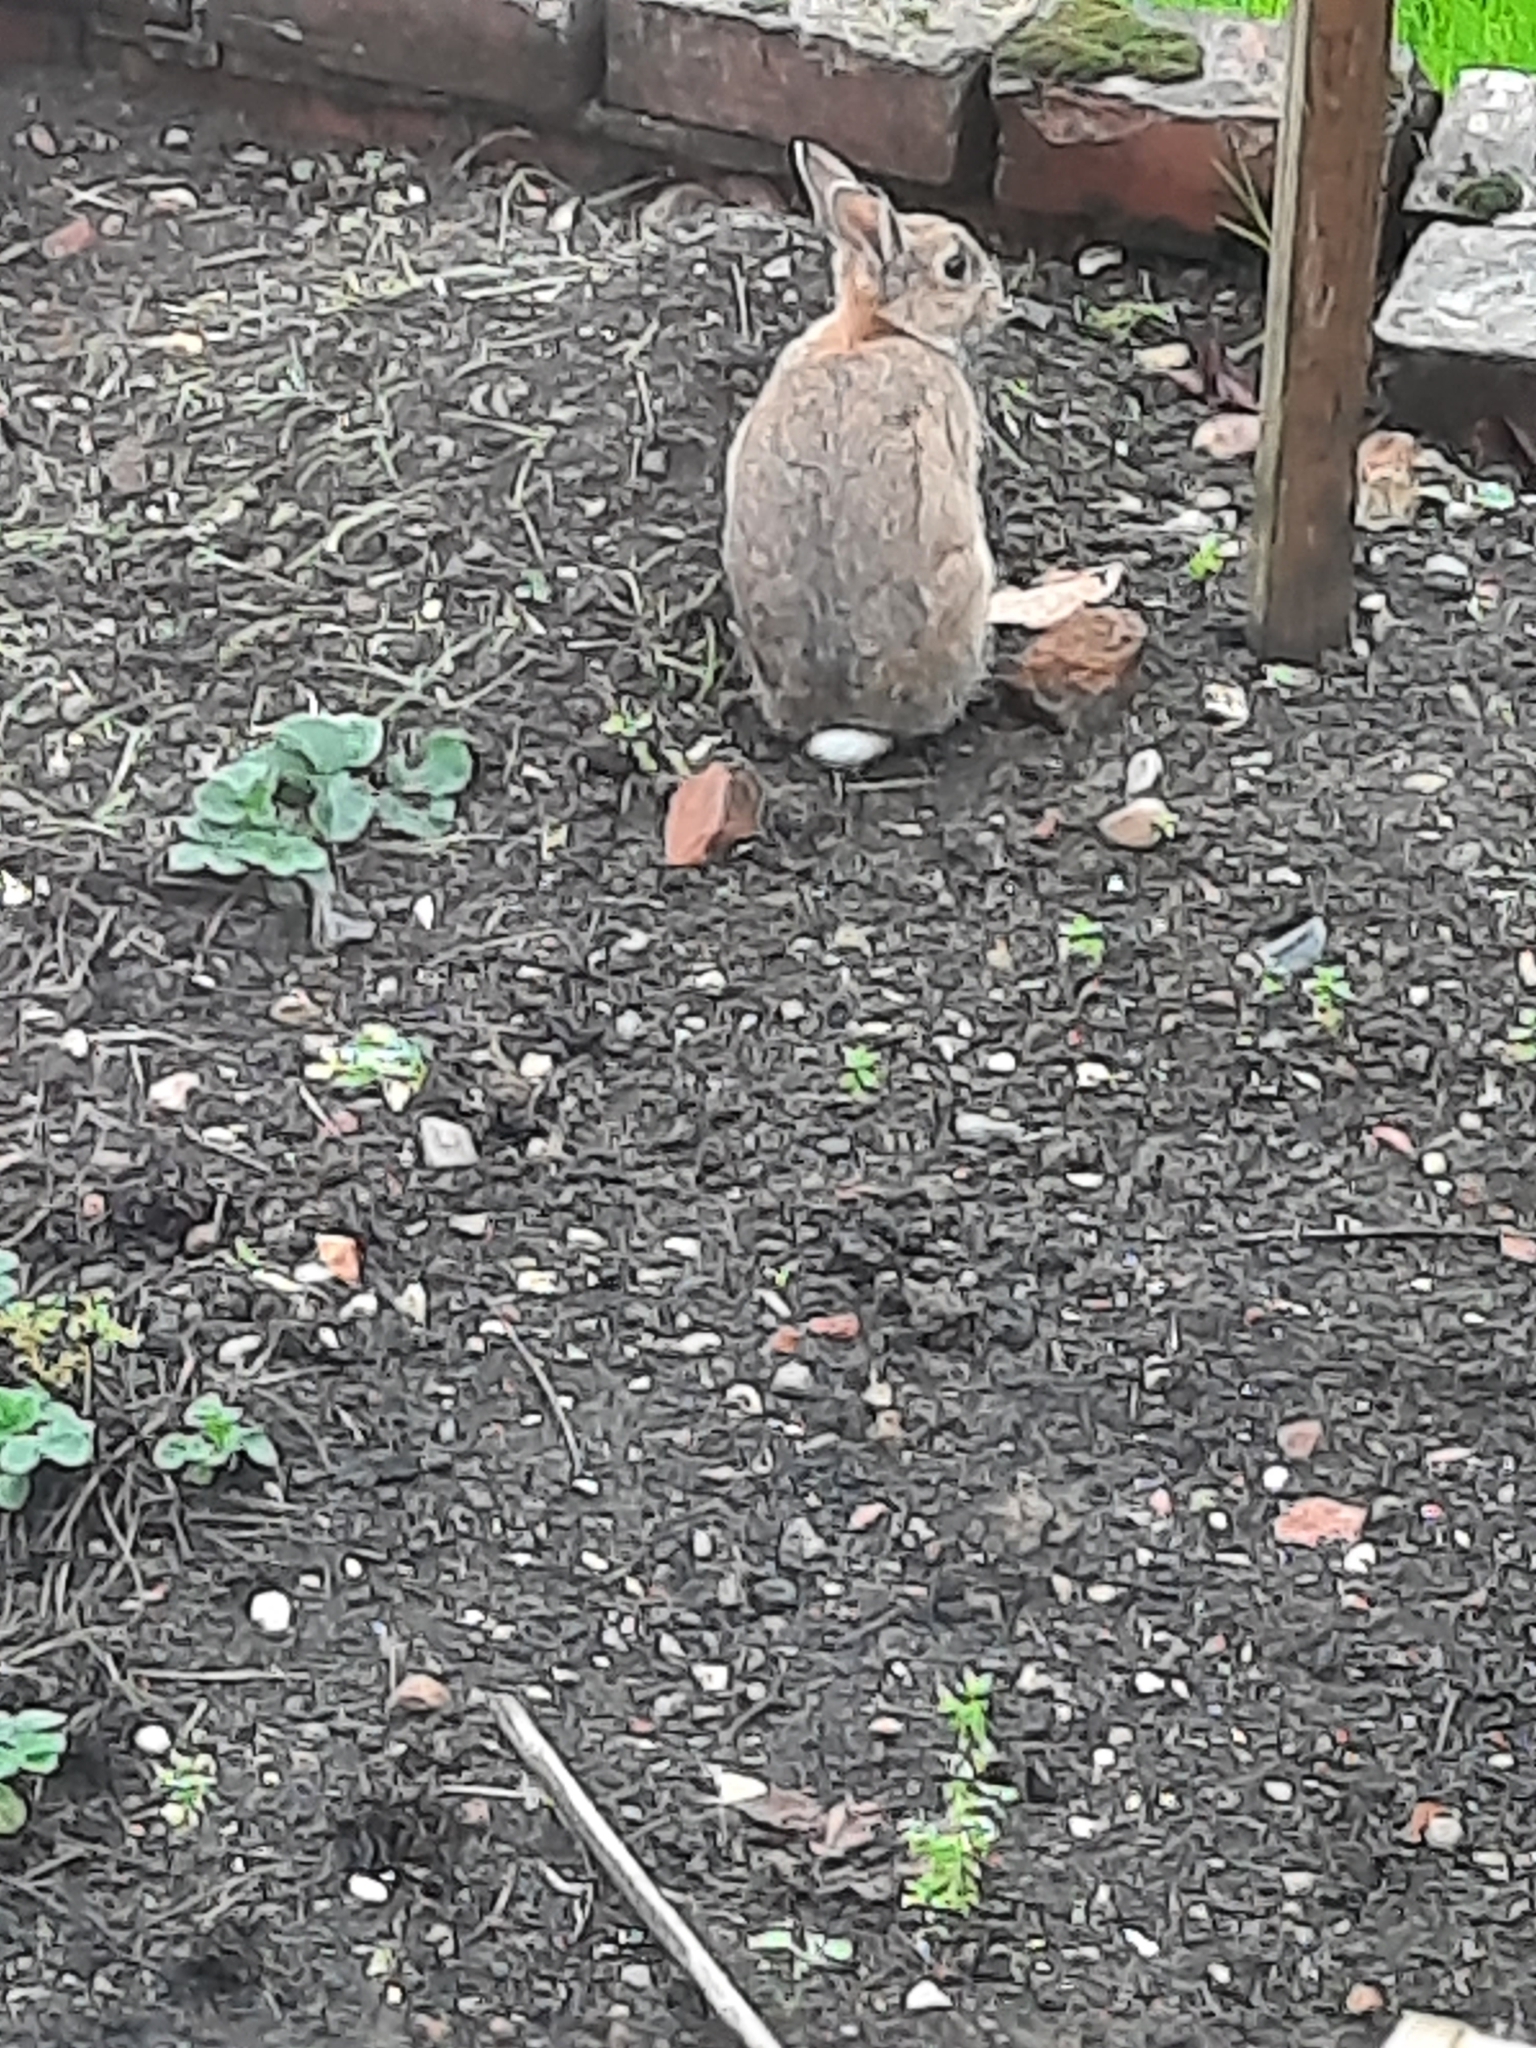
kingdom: Animalia
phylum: Chordata
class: Mammalia
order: Lagomorpha
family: Leporidae
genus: Oryctolagus
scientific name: Oryctolagus cuniculus
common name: European rabbit
